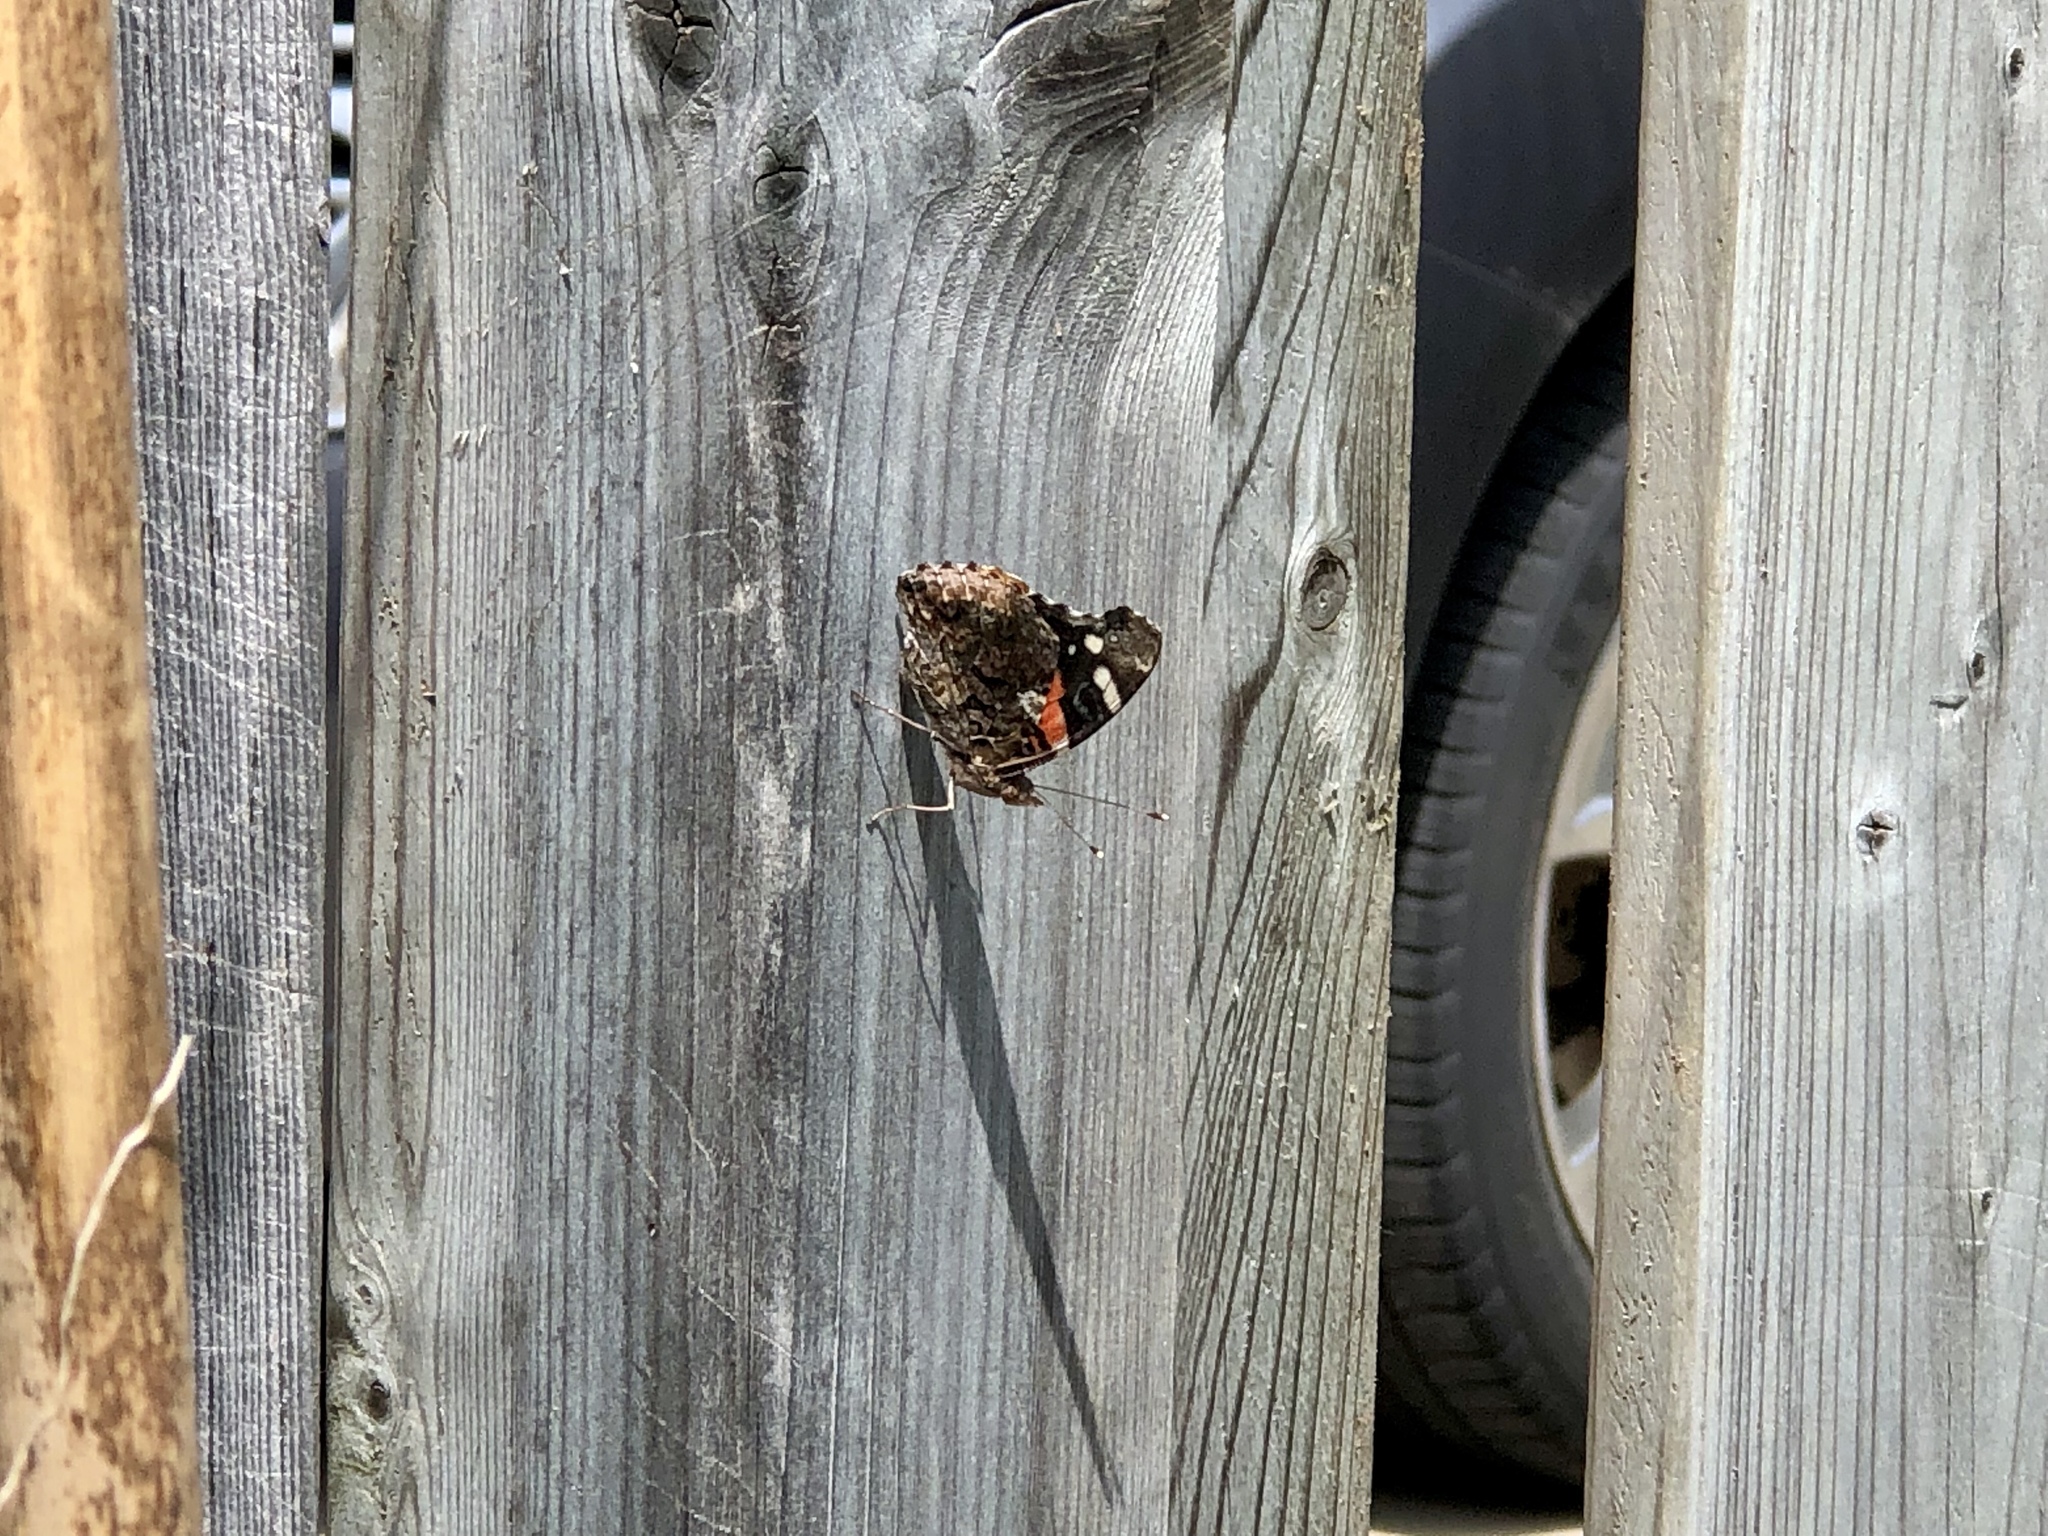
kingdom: Animalia
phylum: Arthropoda
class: Insecta
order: Lepidoptera
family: Nymphalidae
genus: Vanessa
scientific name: Vanessa atalanta
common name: Red admiral
